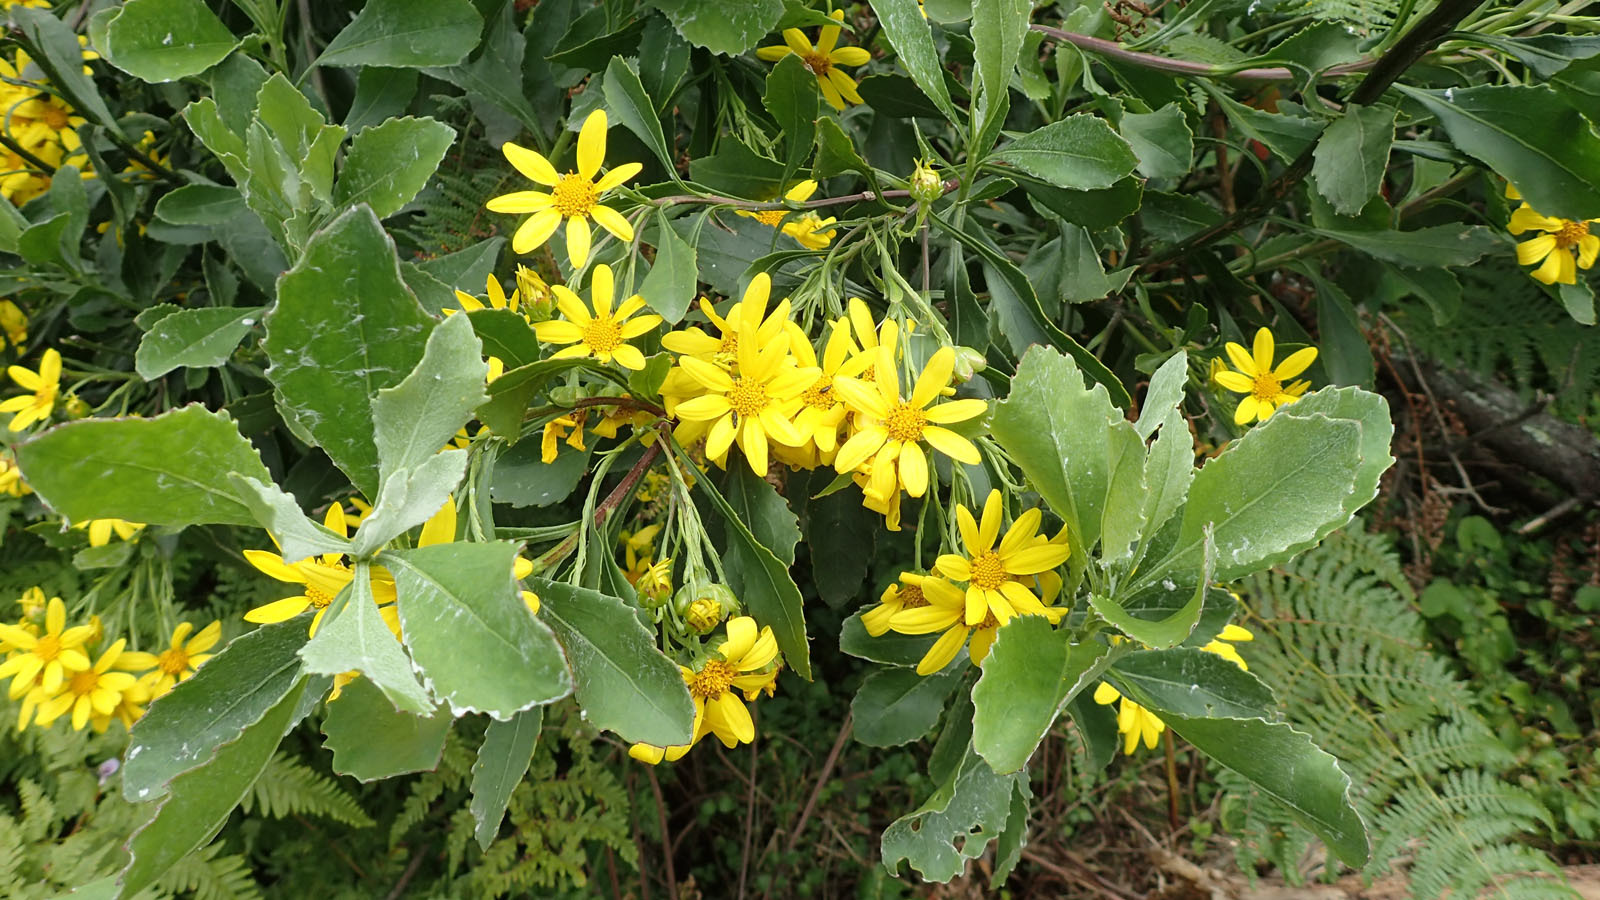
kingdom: Plantae
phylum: Tracheophyta
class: Magnoliopsida
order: Asterales
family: Asteraceae
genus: Osteospermum
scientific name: Osteospermum moniliferum
